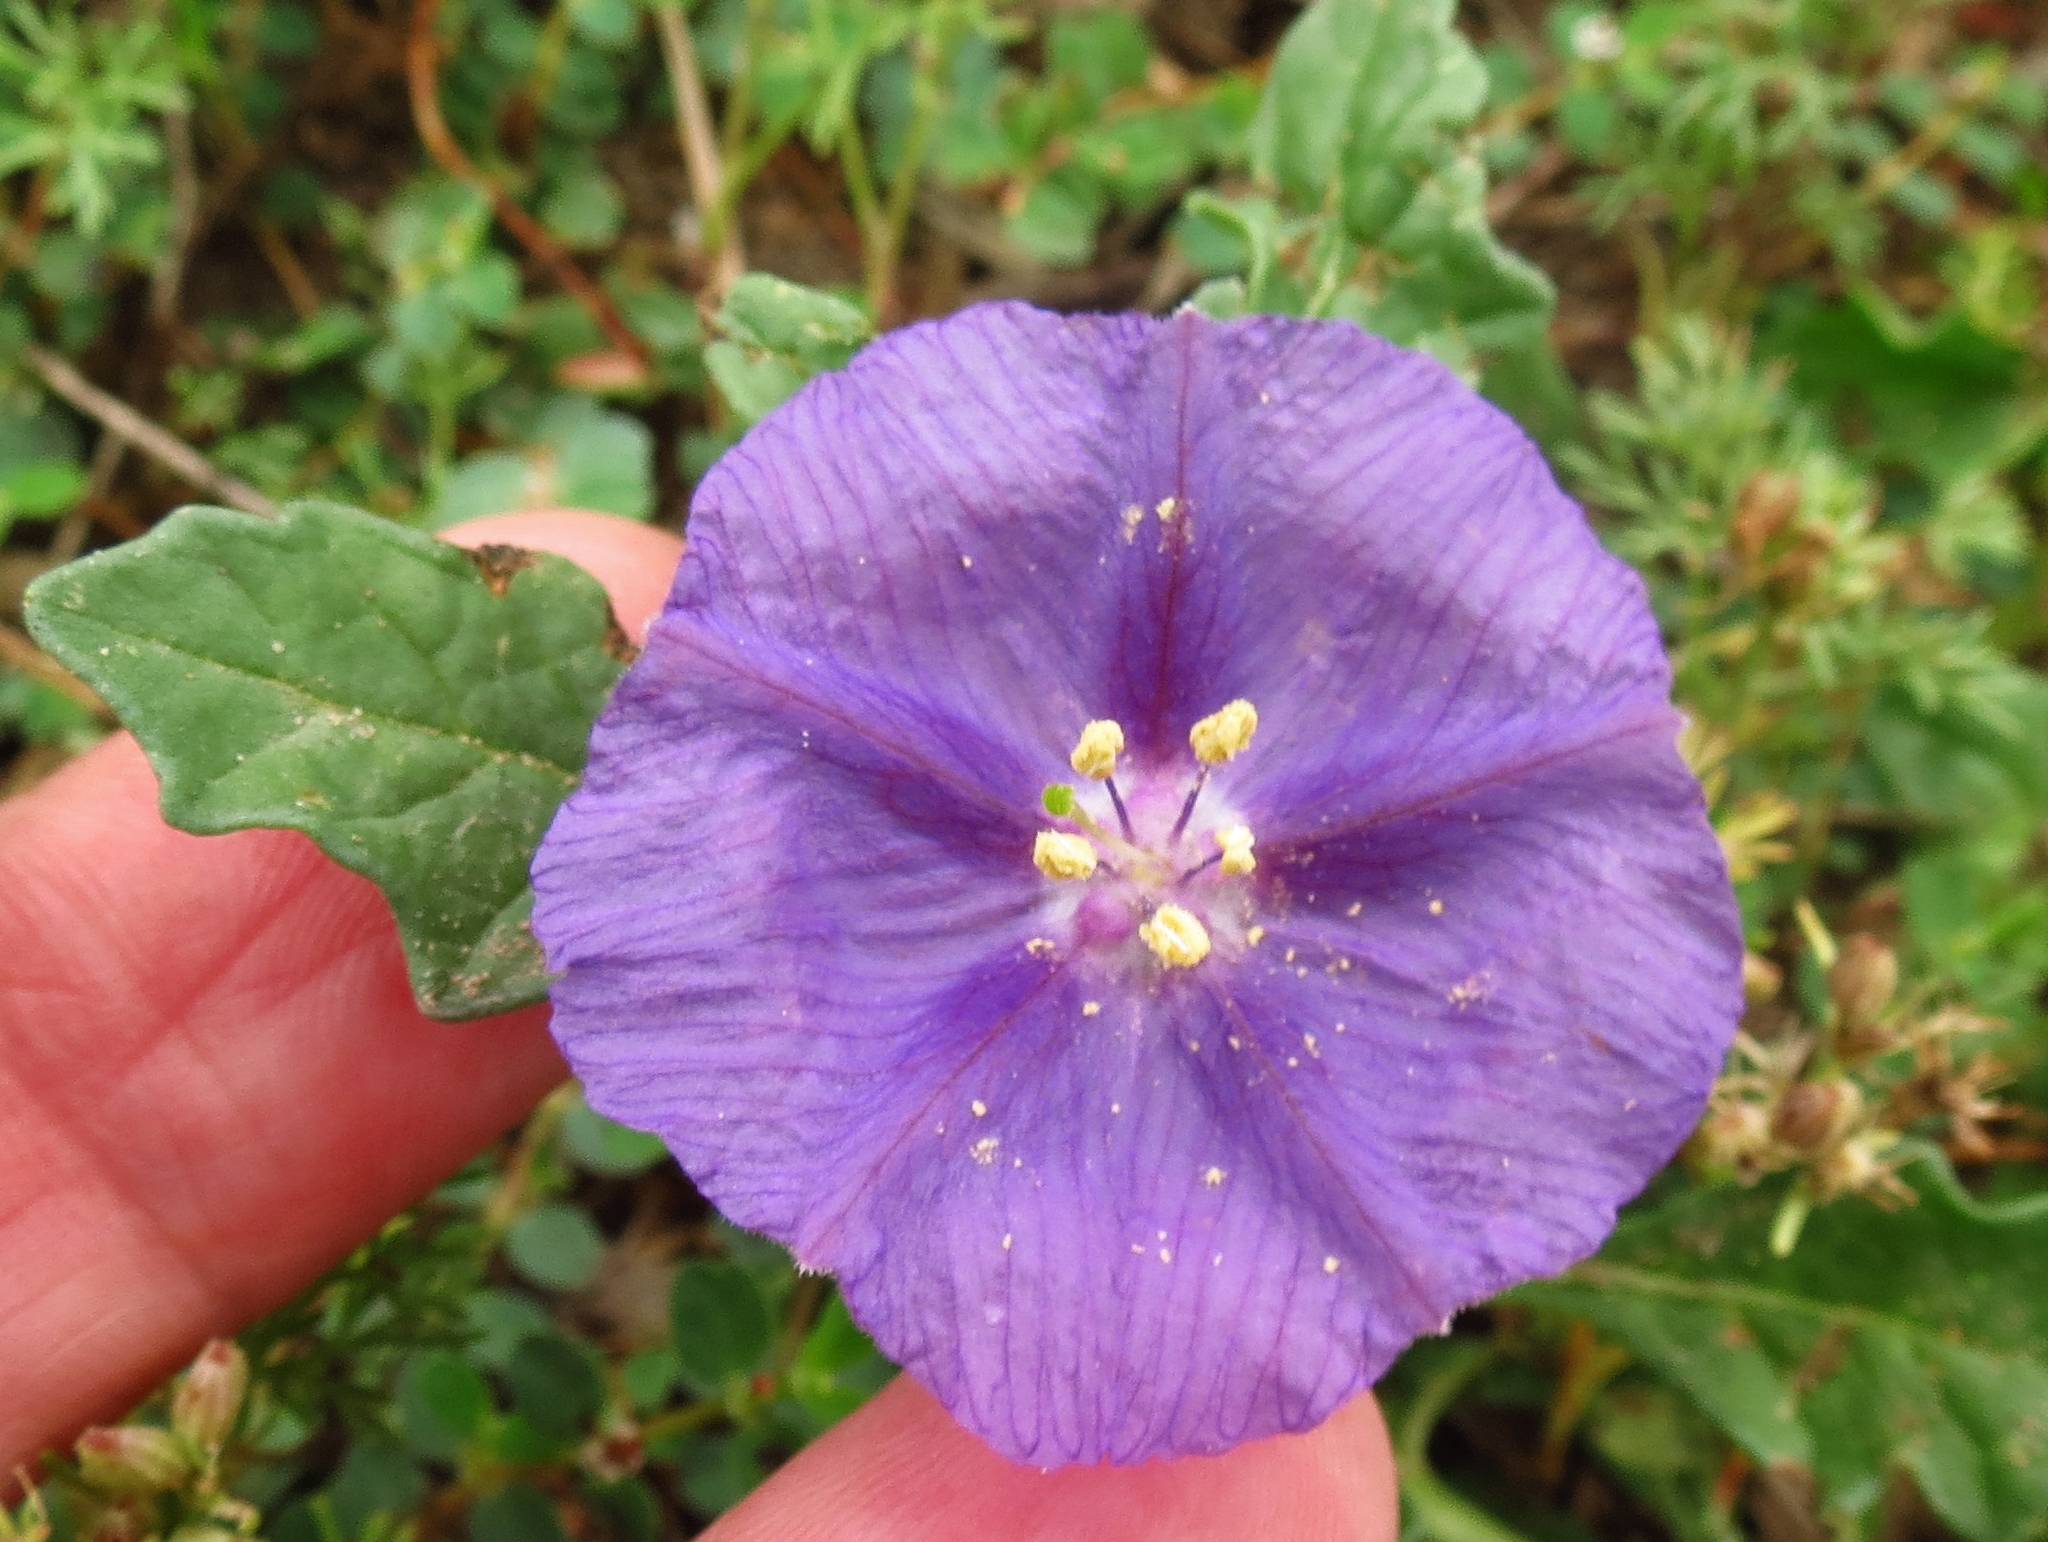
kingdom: Plantae
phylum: Tracheophyta
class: Magnoliopsida
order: Solanales
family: Solanaceae
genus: Quincula
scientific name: Quincula lobata
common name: Purple-ground-cherry
